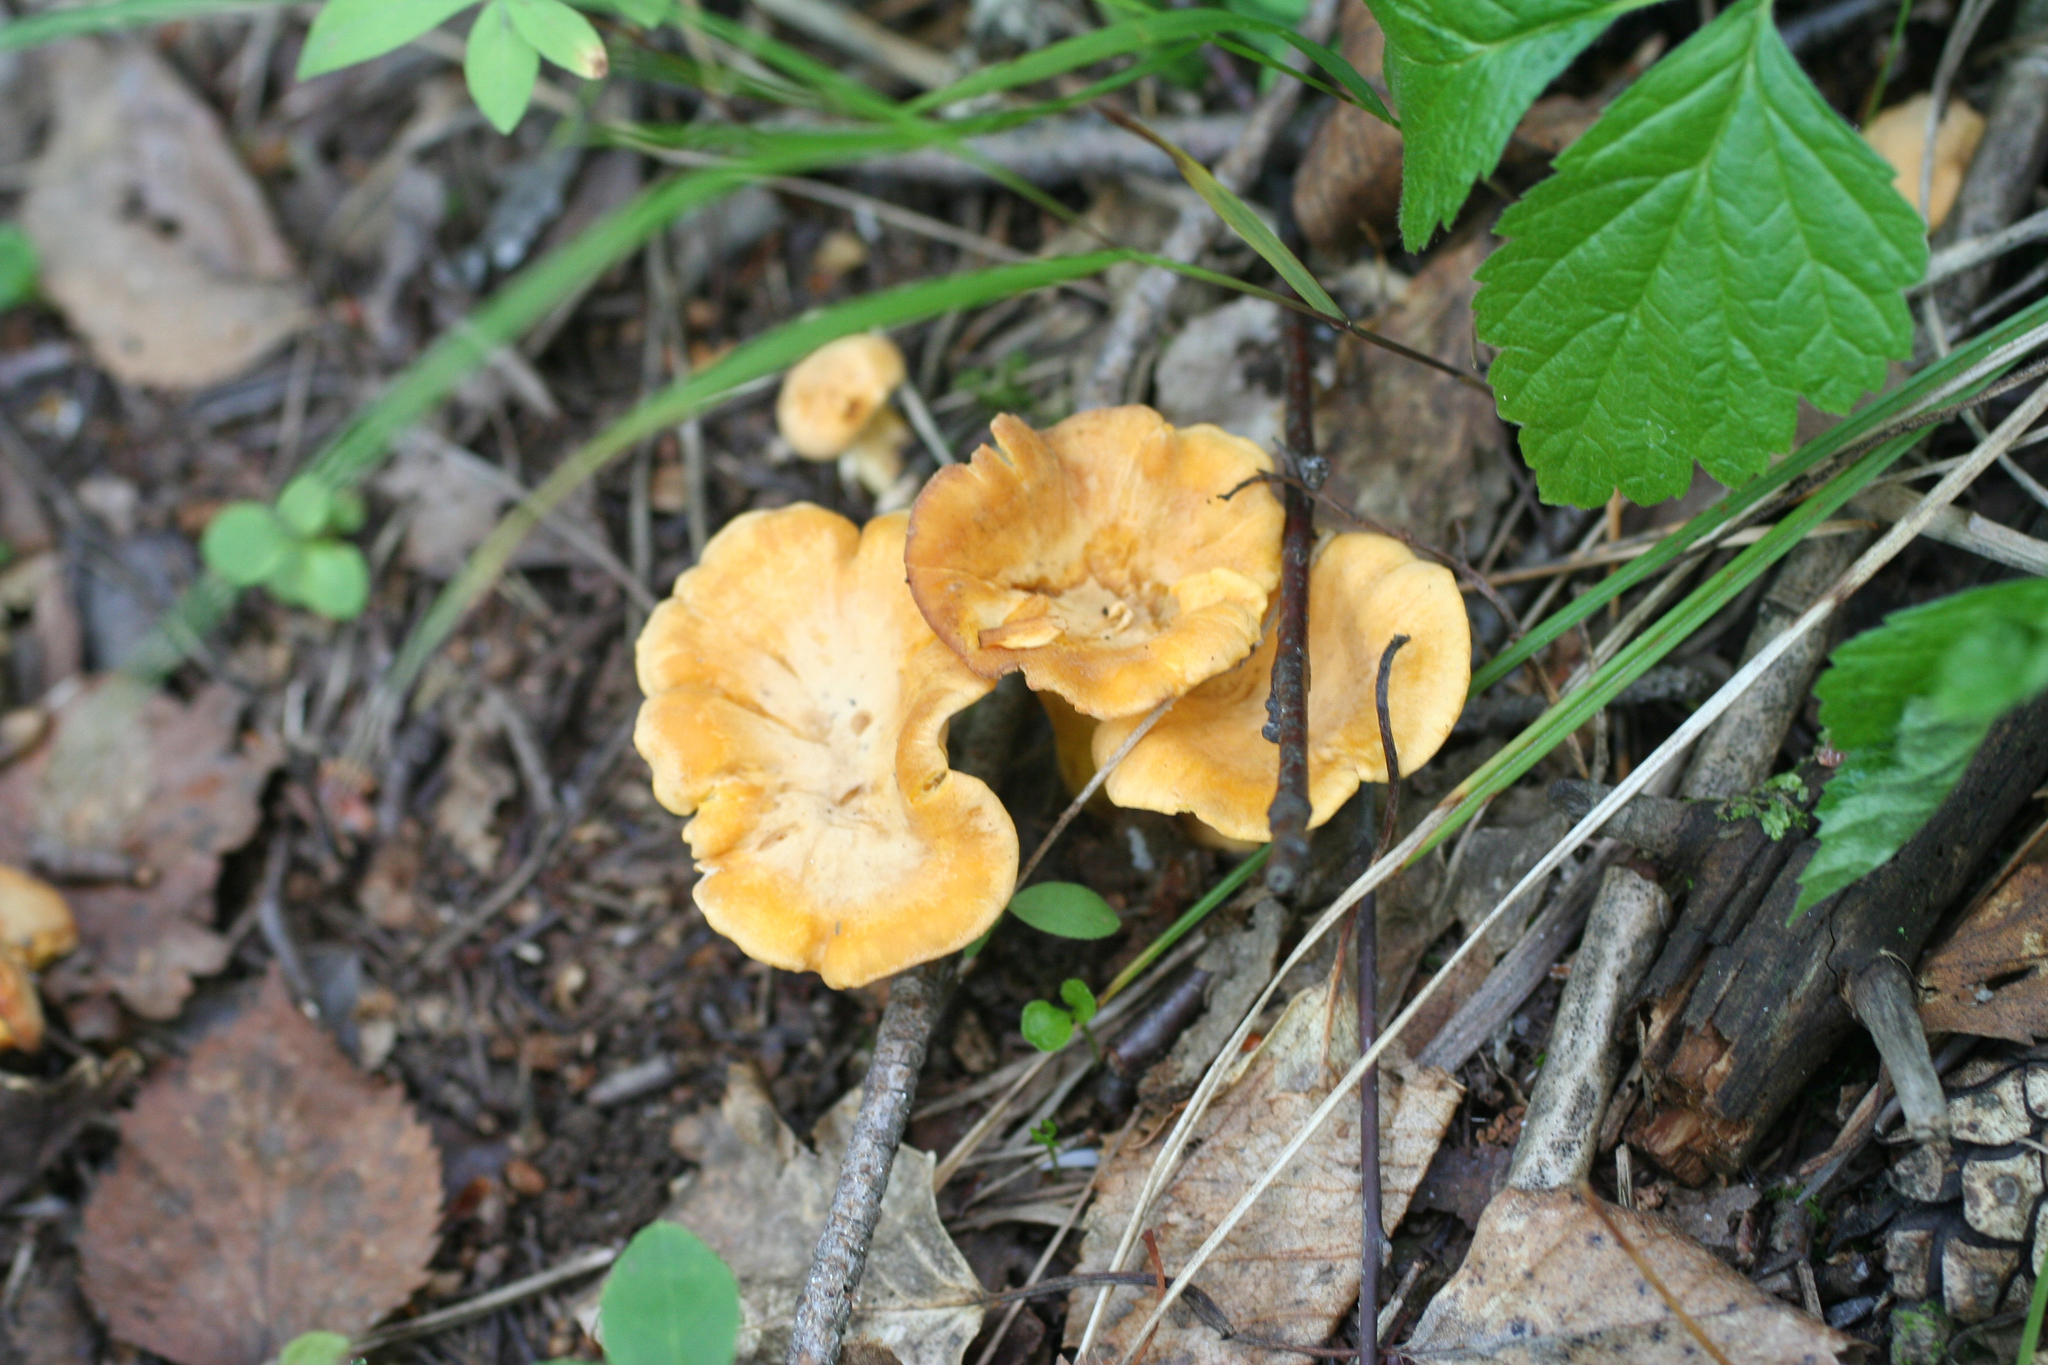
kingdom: Fungi
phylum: Basidiomycota
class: Agaricomycetes
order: Cantharellales
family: Hydnaceae
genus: Cantharellus
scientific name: Cantharellus cibarius
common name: Chanterelle
